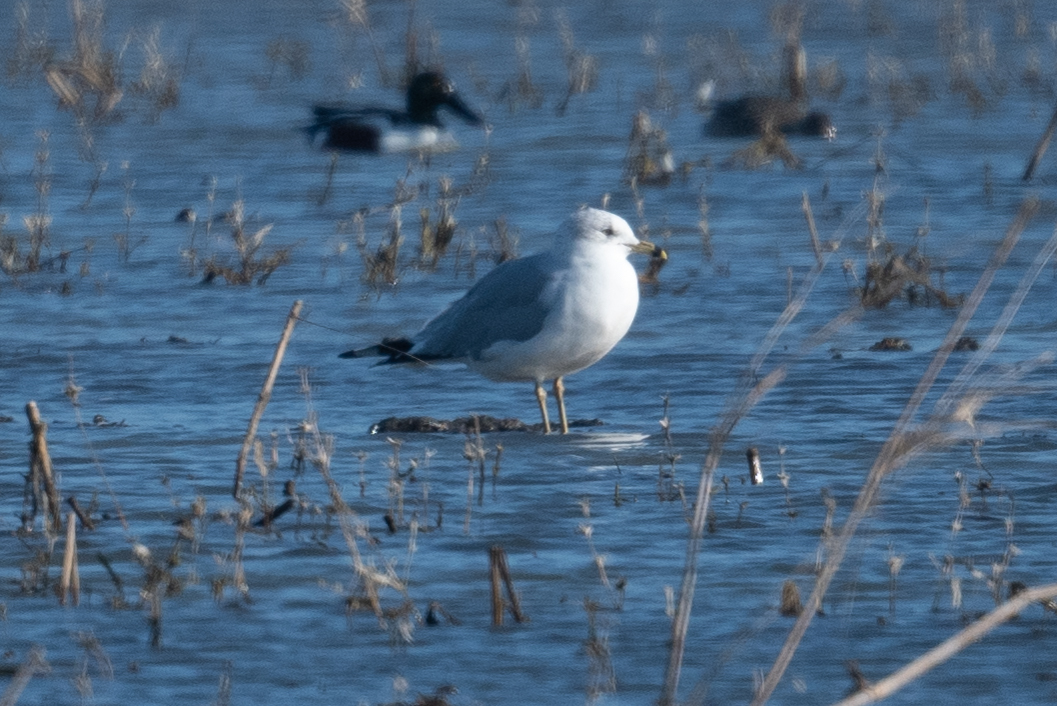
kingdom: Animalia
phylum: Chordata
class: Aves
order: Charadriiformes
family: Laridae
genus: Larus
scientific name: Larus delawarensis
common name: Ring-billed gull
